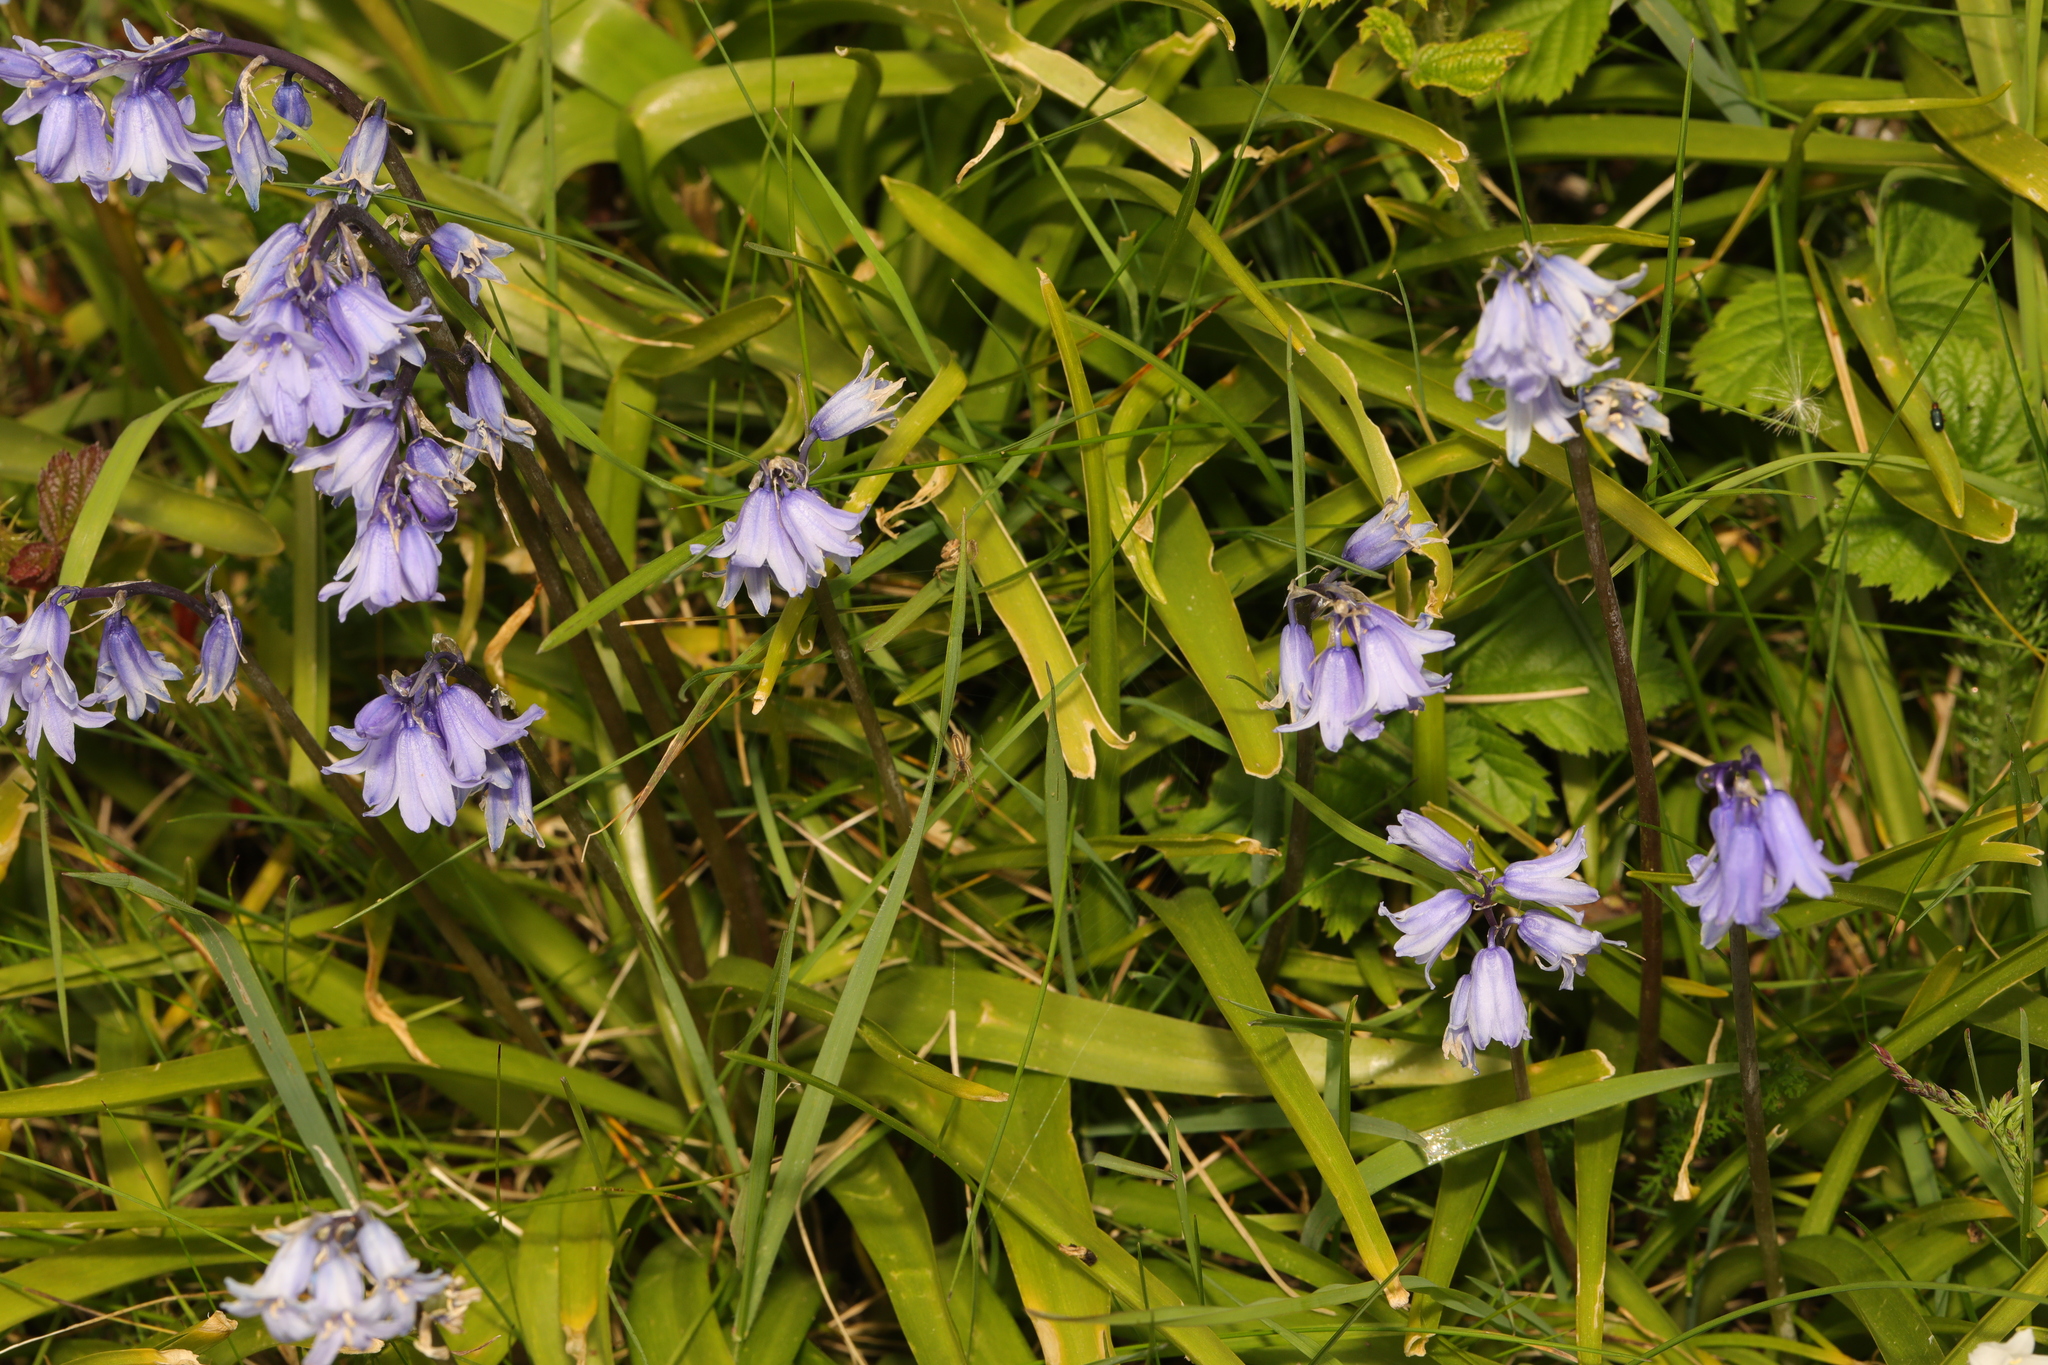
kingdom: Plantae
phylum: Tracheophyta
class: Liliopsida
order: Asparagales
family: Asparagaceae
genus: Hyacinthoides
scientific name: Hyacinthoides massartiana
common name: Hyacinthoides
